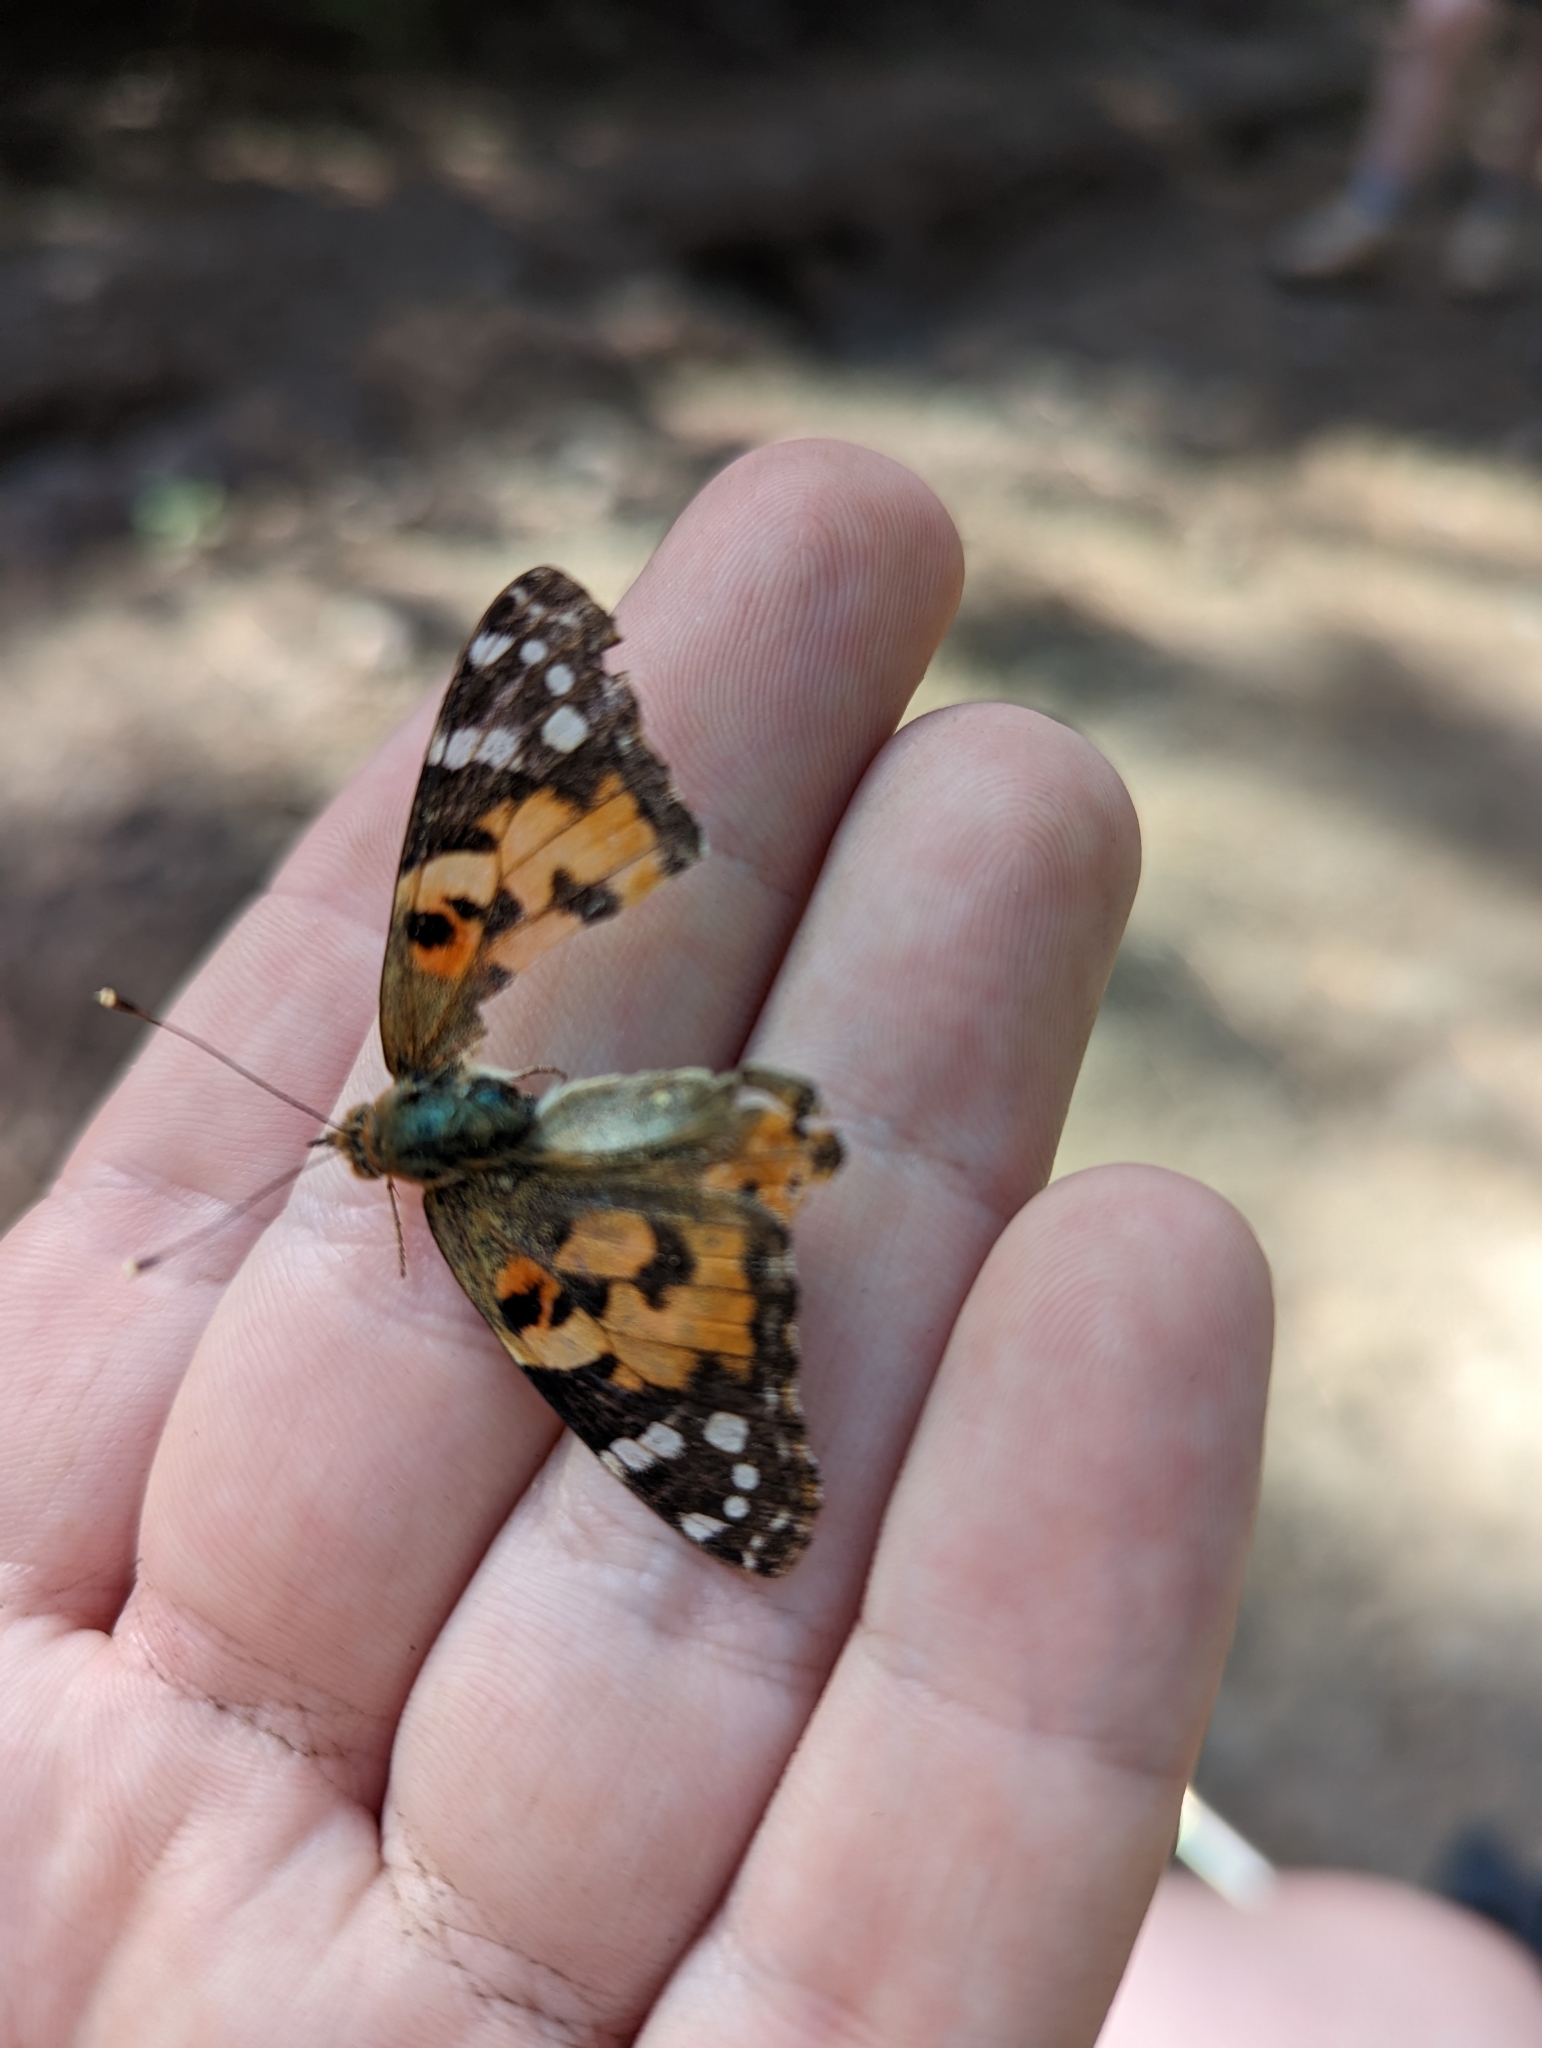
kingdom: Animalia
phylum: Arthropoda
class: Insecta
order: Lepidoptera
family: Nymphalidae
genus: Vanessa
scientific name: Vanessa cardui
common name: Painted lady
